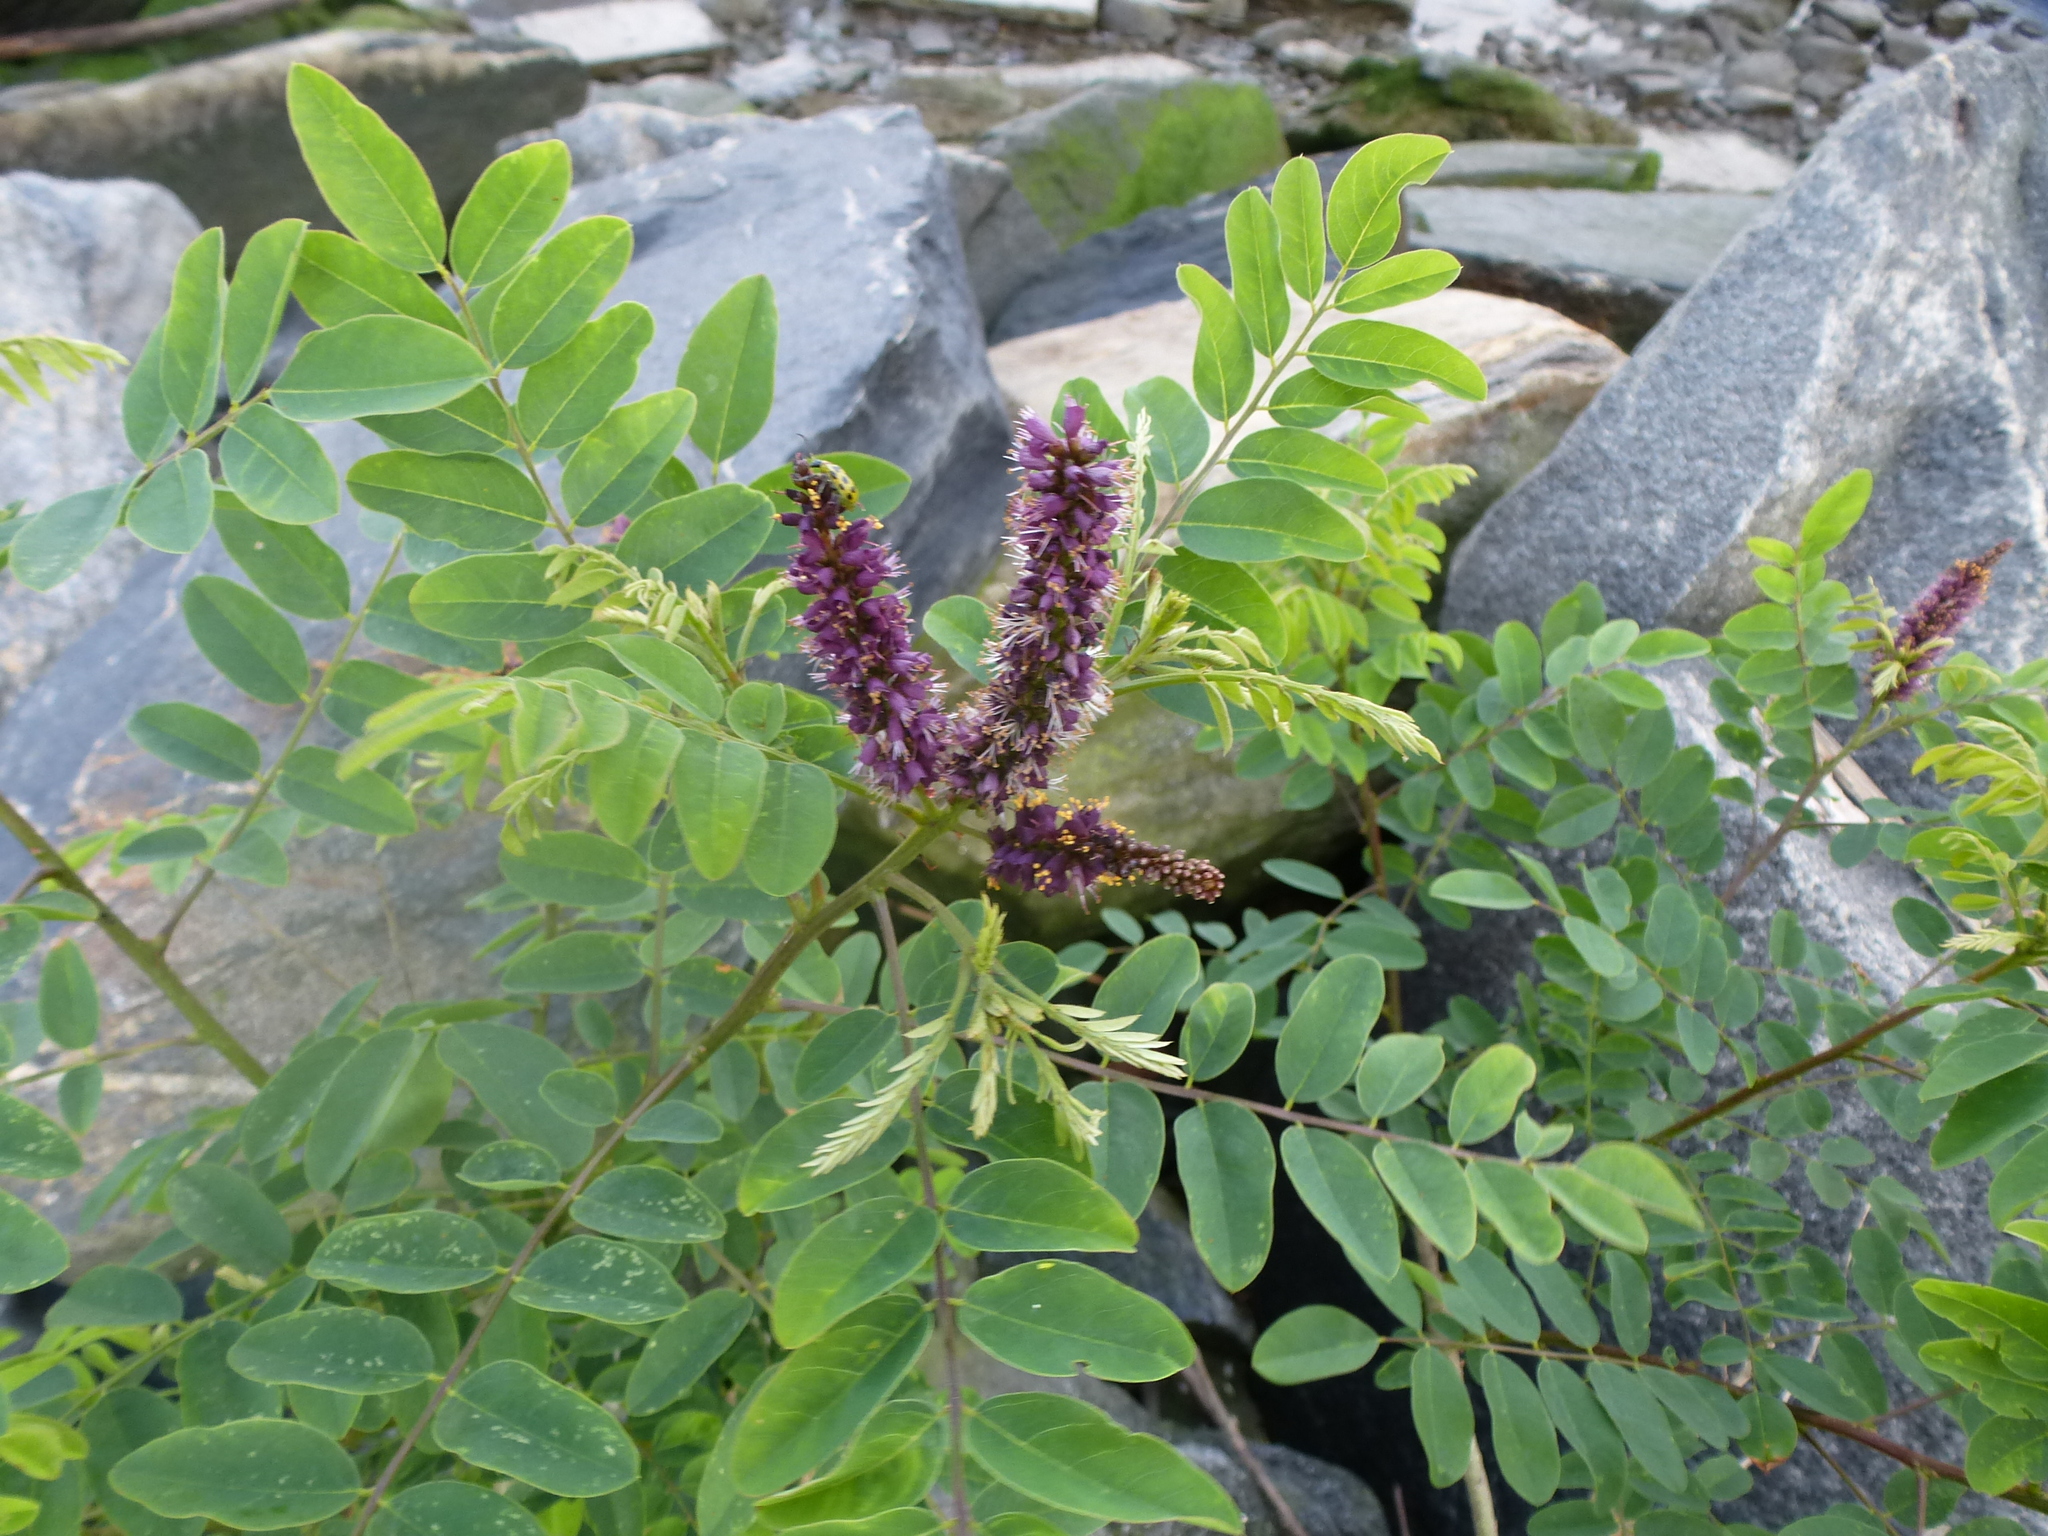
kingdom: Plantae
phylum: Tracheophyta
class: Magnoliopsida
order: Fabales
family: Fabaceae
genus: Amorpha
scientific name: Amorpha fruticosa
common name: False indigo
